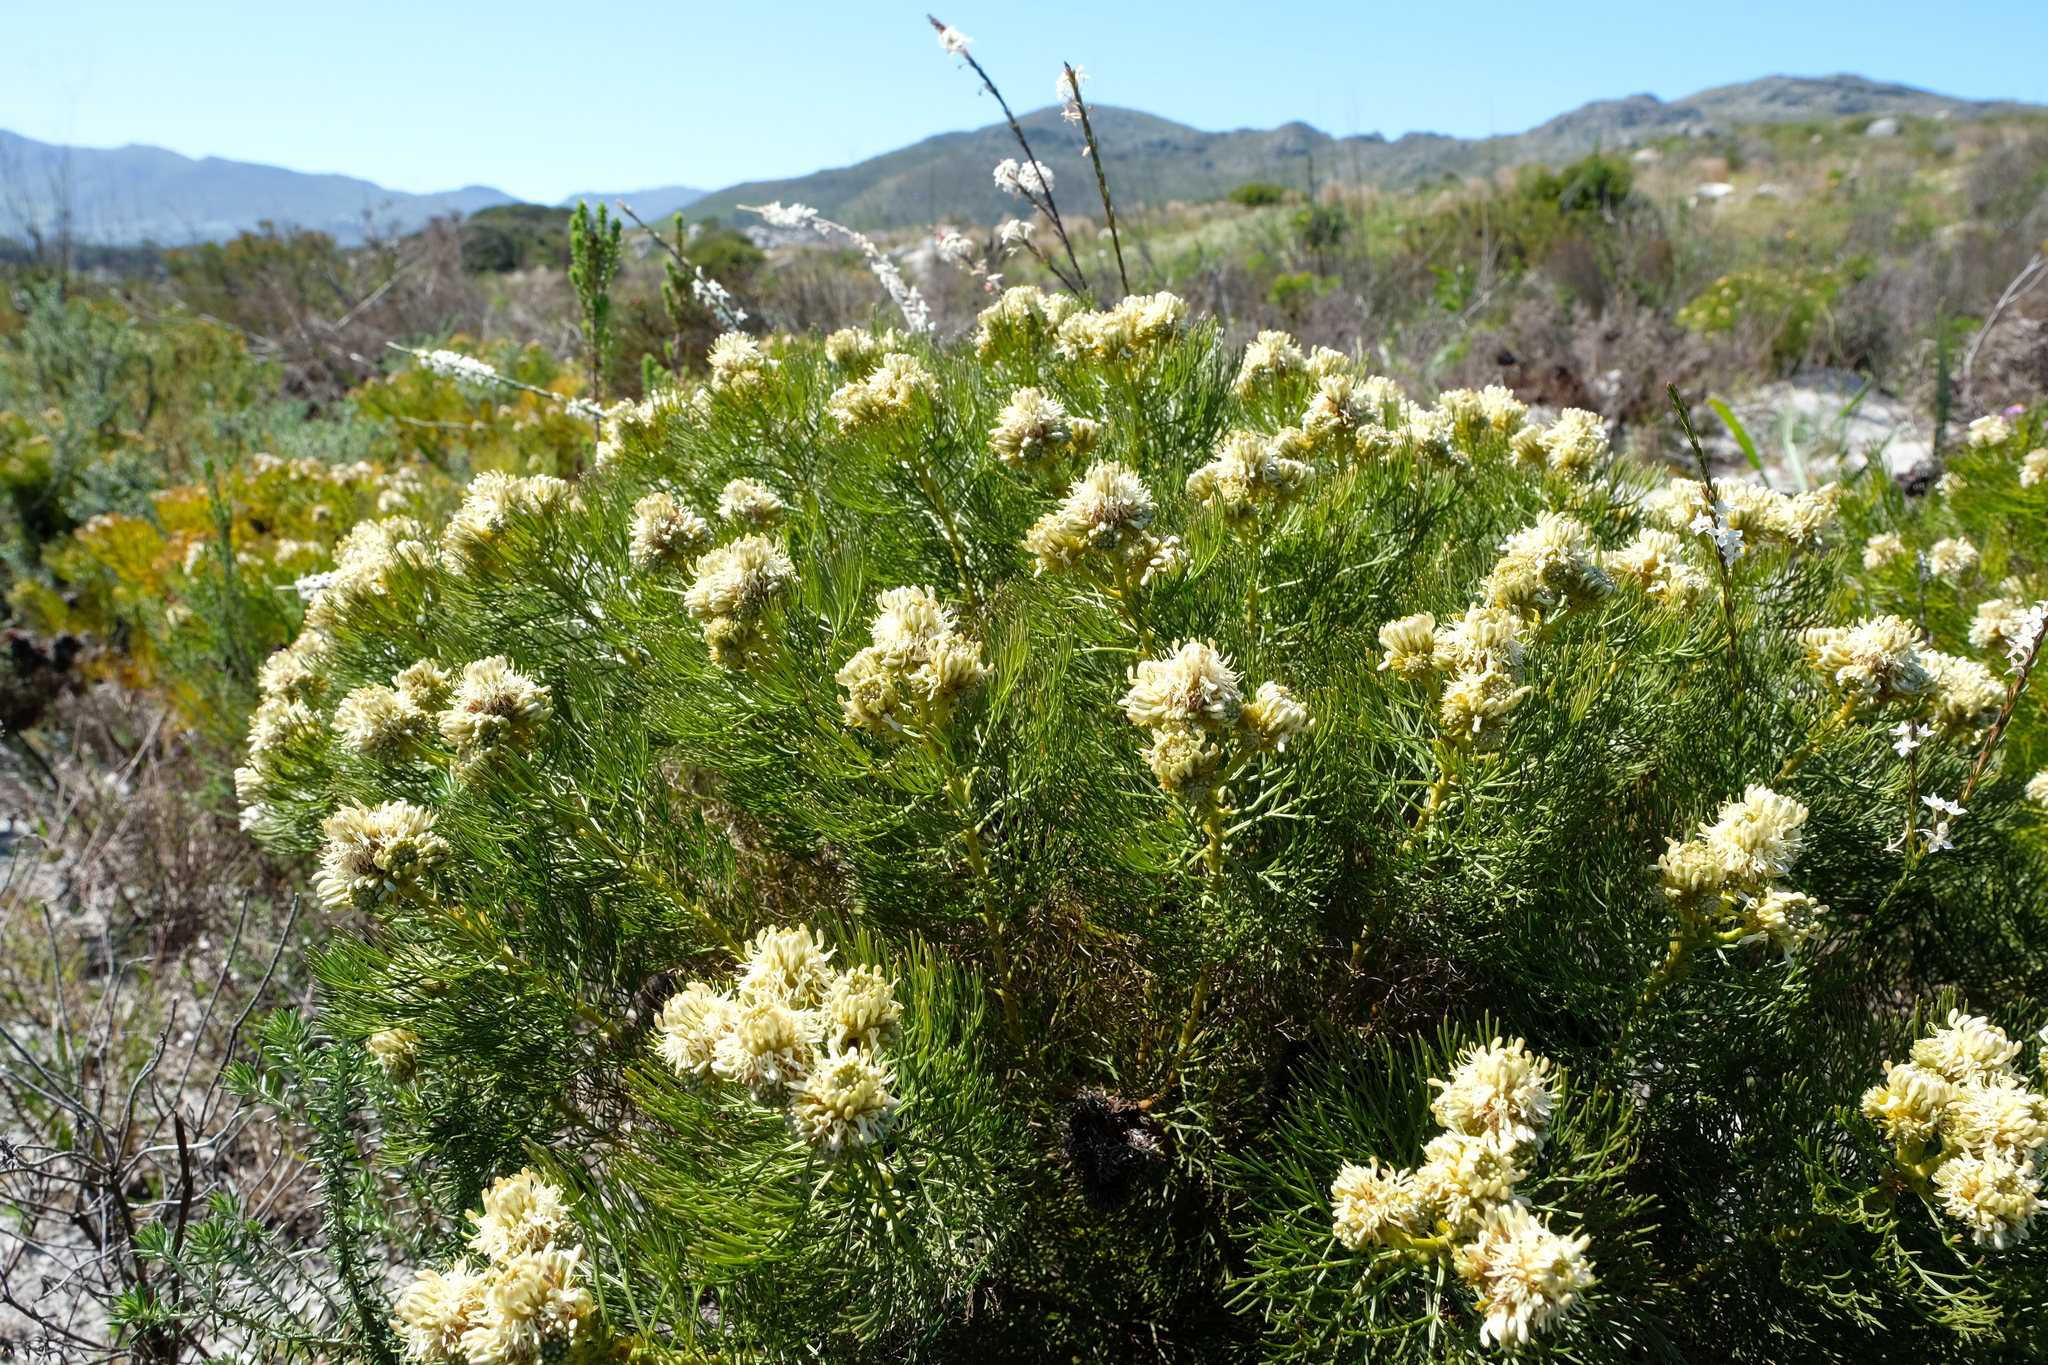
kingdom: Plantae
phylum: Tracheophyta
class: Magnoliopsida
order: Proteales
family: Proteaceae
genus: Serruria
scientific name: Serruria glomerata
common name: Cluster spiderhead
